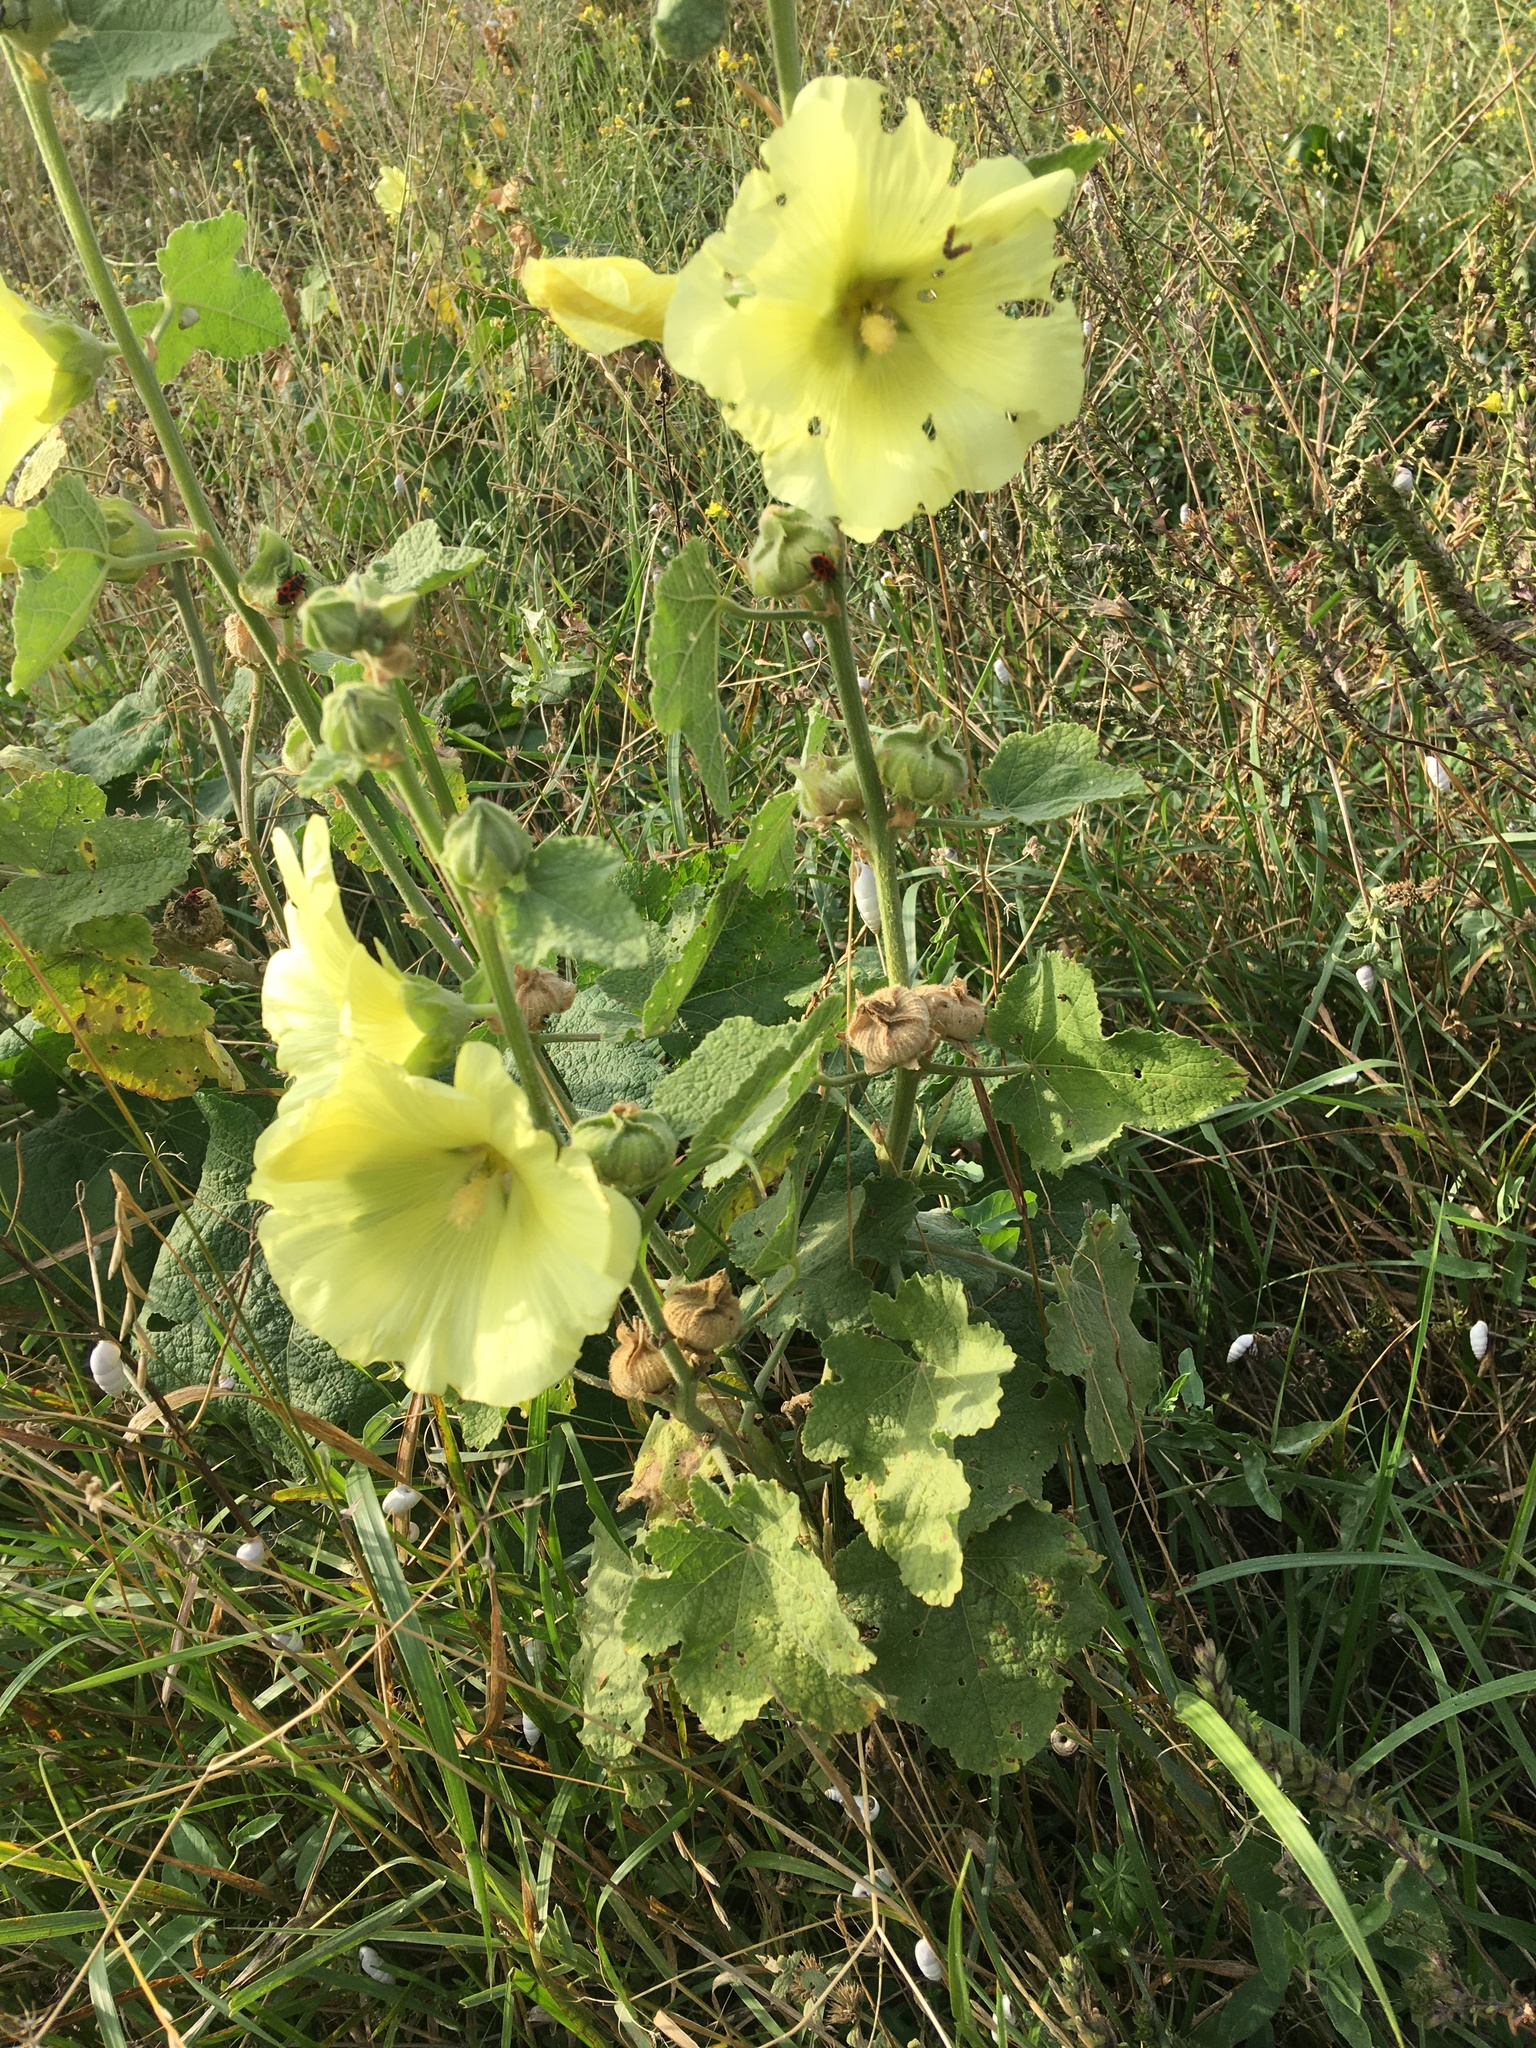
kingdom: Plantae
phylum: Tracheophyta
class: Magnoliopsida
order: Malvales
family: Malvaceae
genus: Alcea
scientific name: Alcea rugosa
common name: Russian hollyhock
